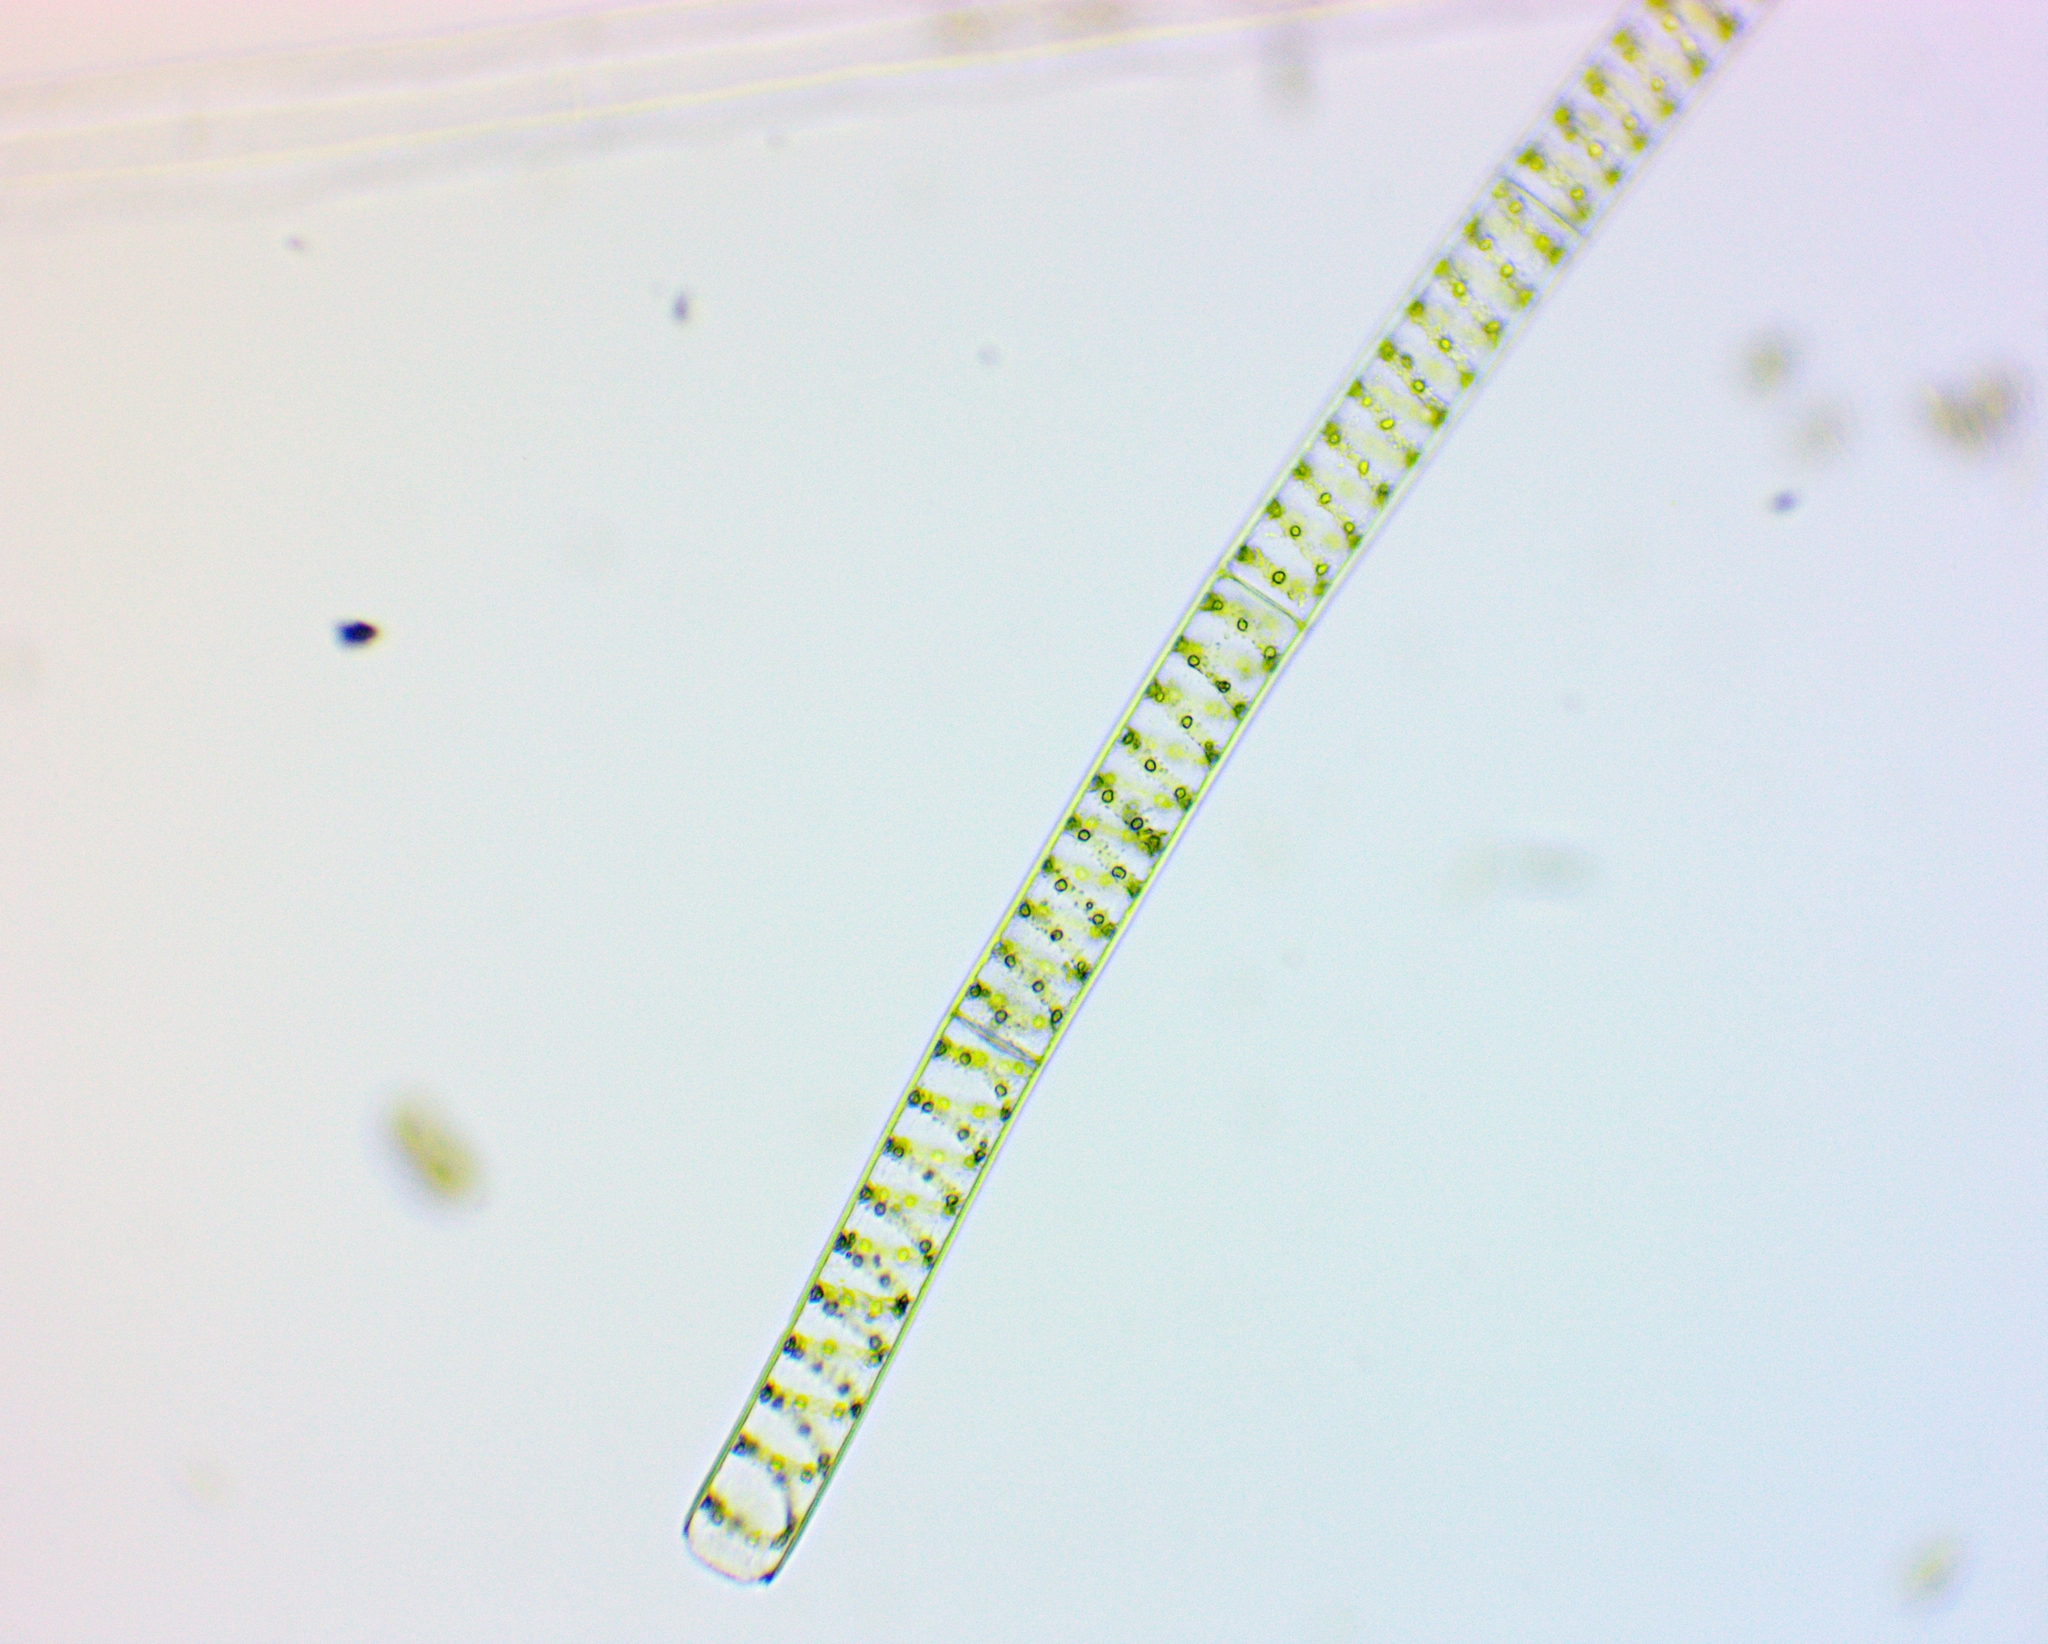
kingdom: Plantae
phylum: Charophyta
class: Zygnematophyceae
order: Zygnematales
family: Zygnemataceae
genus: Spirogyra
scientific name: Spirogyra
